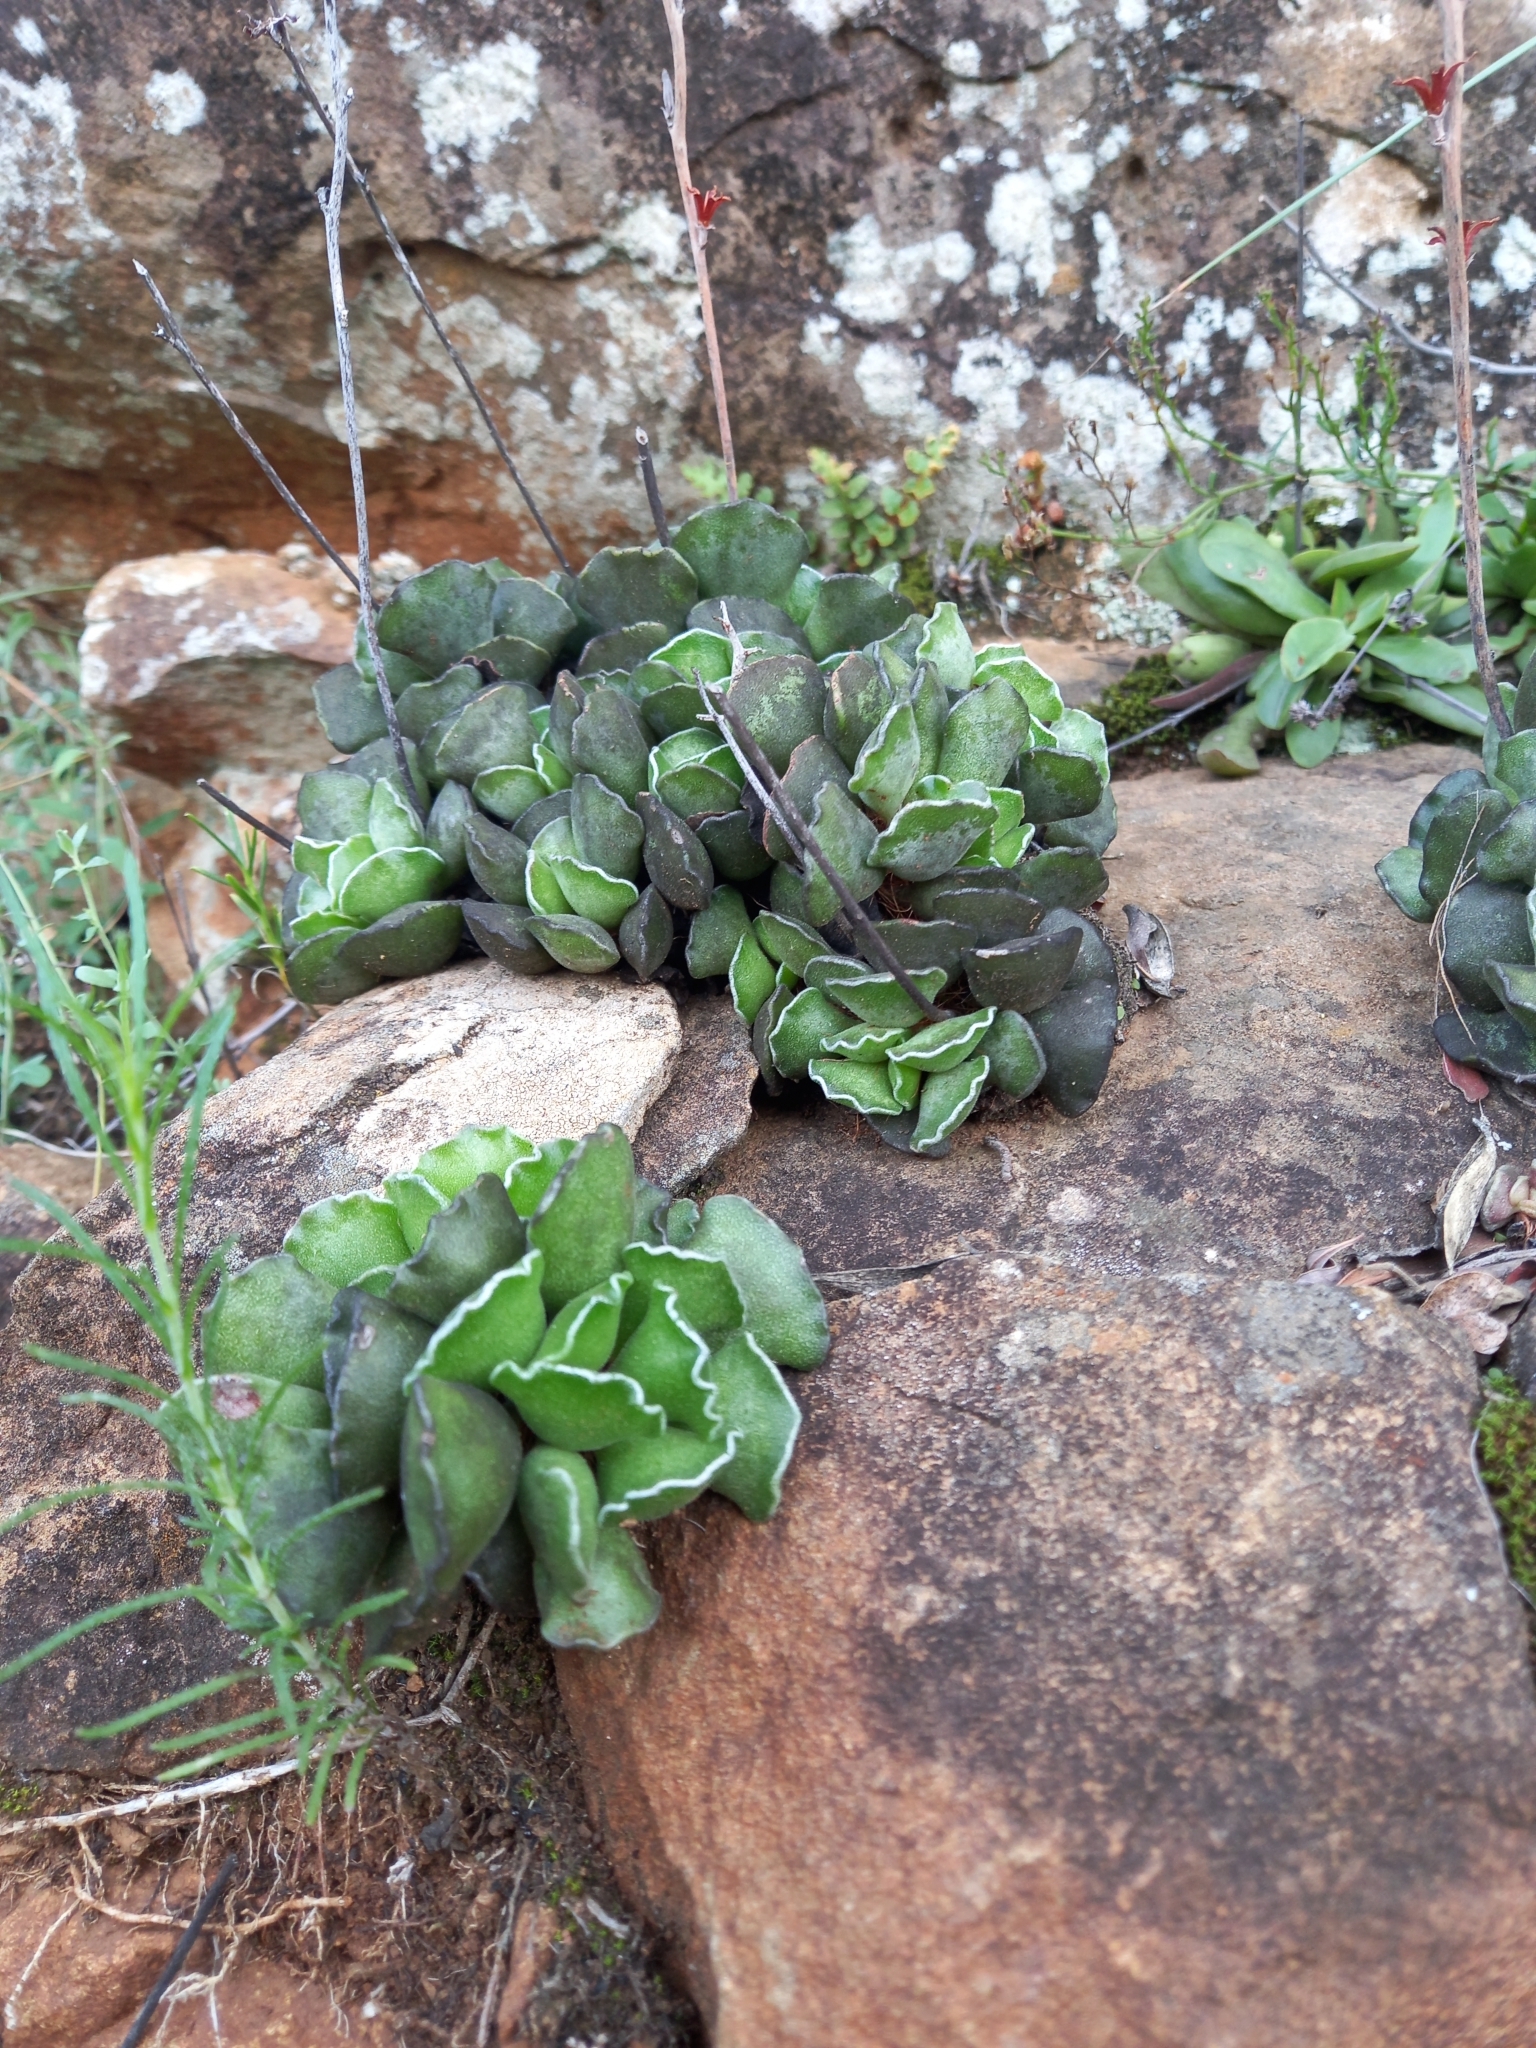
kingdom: Plantae
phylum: Tracheophyta
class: Magnoliopsida
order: Saxifragales
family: Crassulaceae
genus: Adromischus
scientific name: Adromischus cristatus
